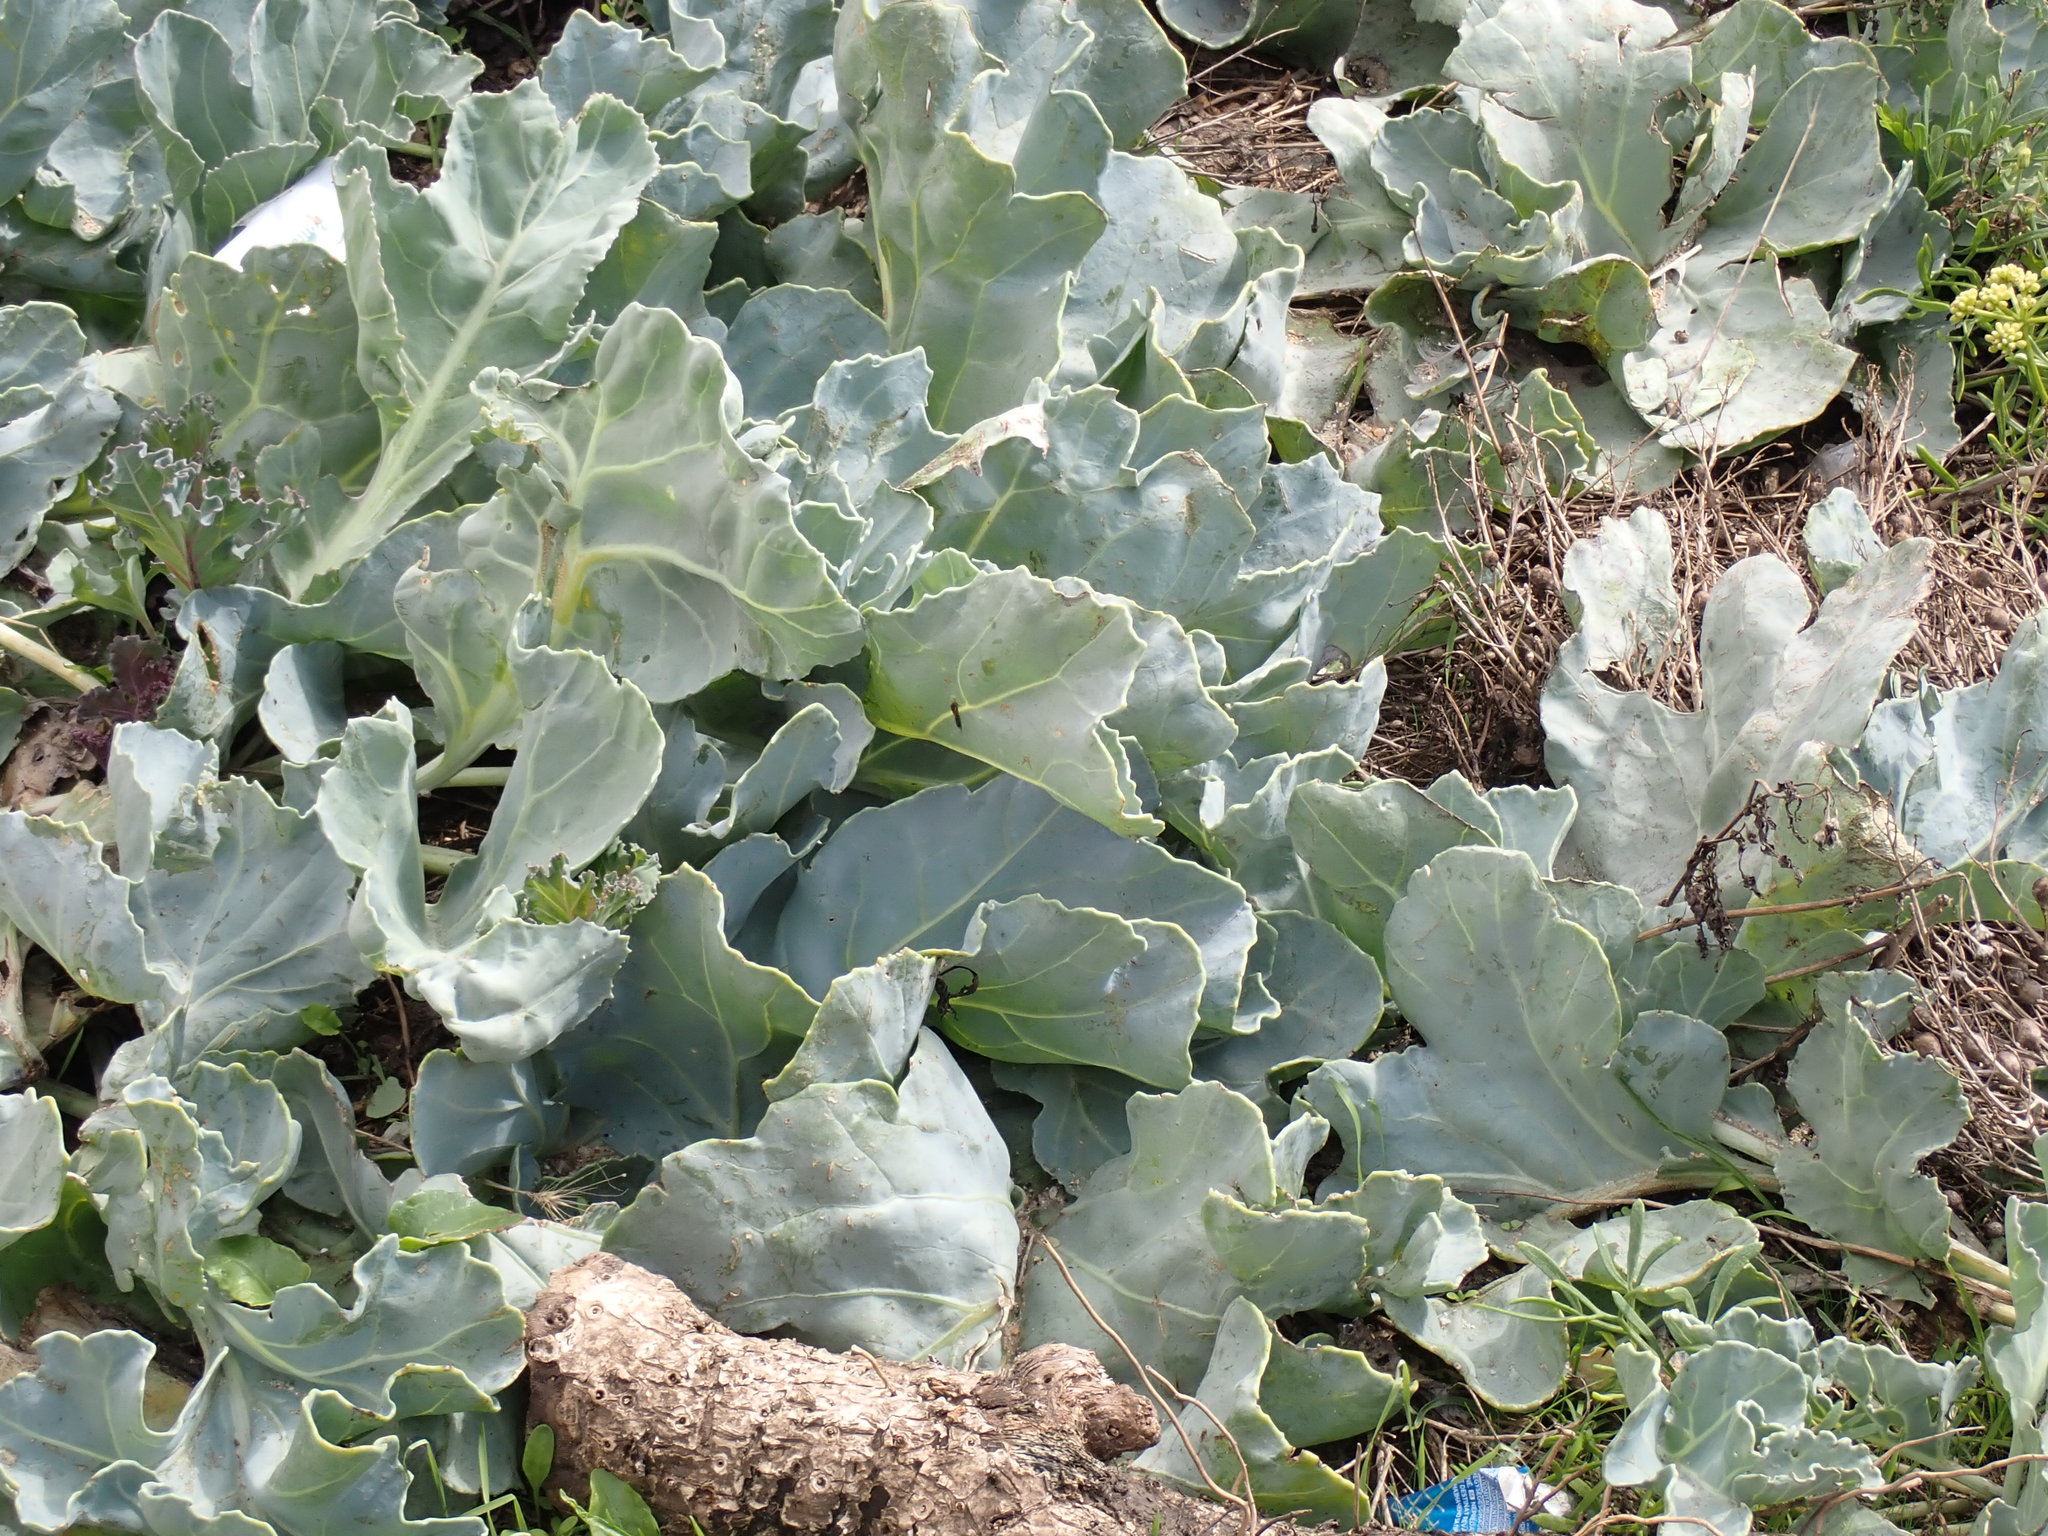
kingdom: Plantae
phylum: Tracheophyta
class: Magnoliopsida
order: Brassicales
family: Brassicaceae
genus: Crambe
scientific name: Crambe maritima
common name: Sea-kale
